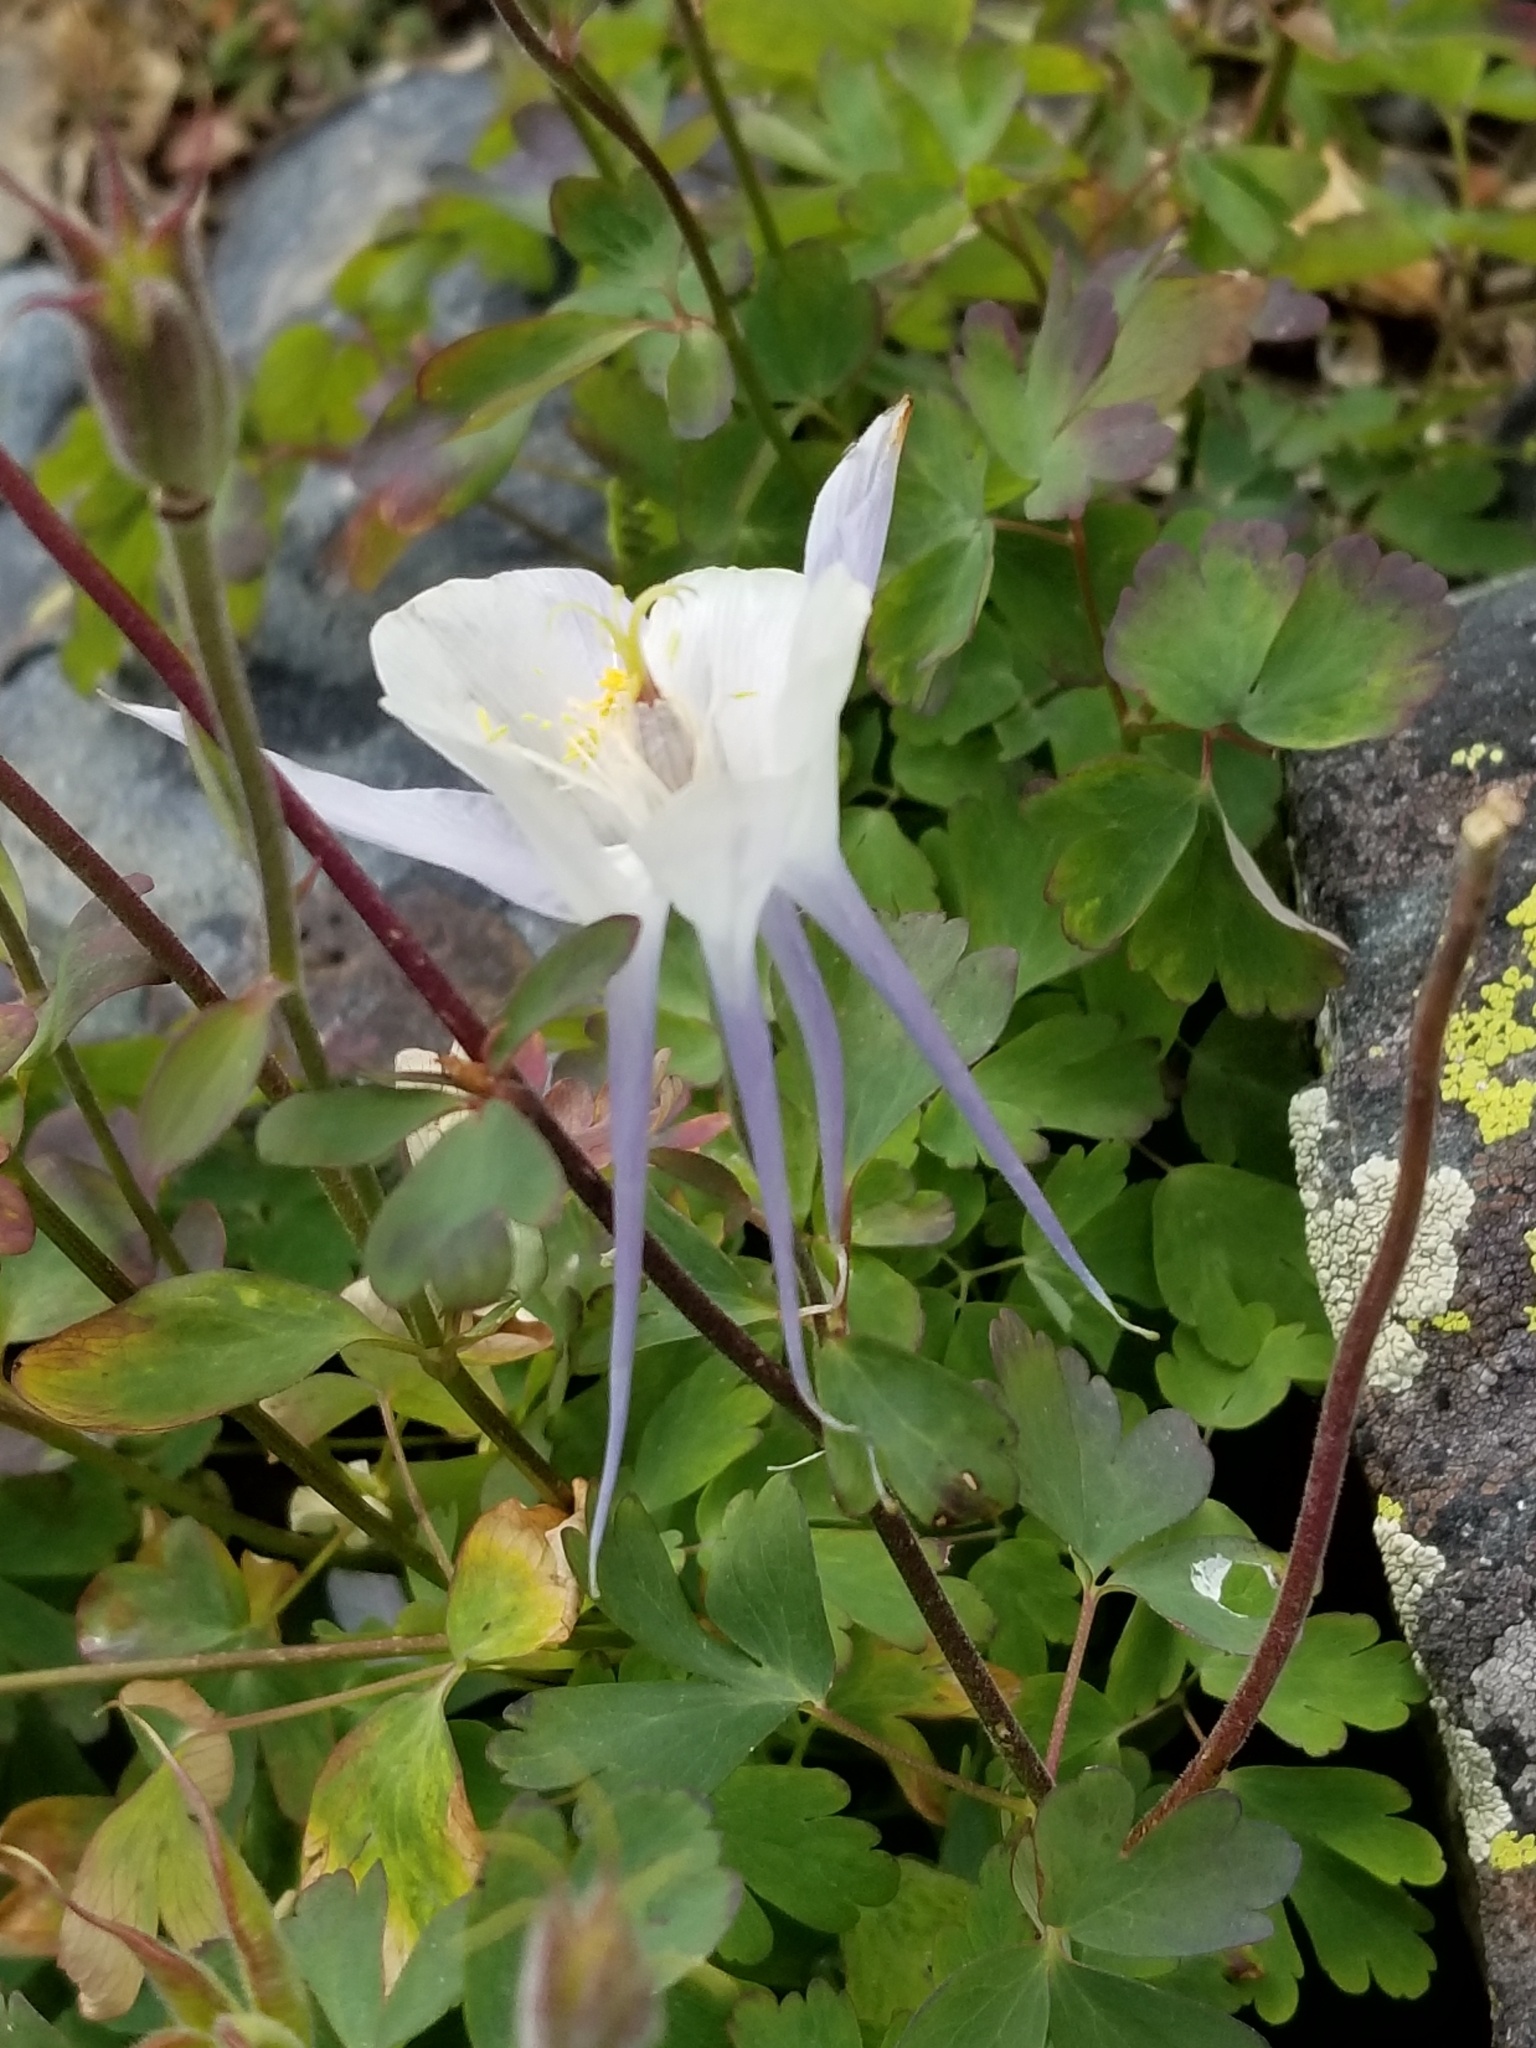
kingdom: Plantae
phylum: Tracheophyta
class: Magnoliopsida
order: Ranunculales
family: Ranunculaceae
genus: Aquilegia
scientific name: Aquilegia coerulea
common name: Rocky mountain columbine
